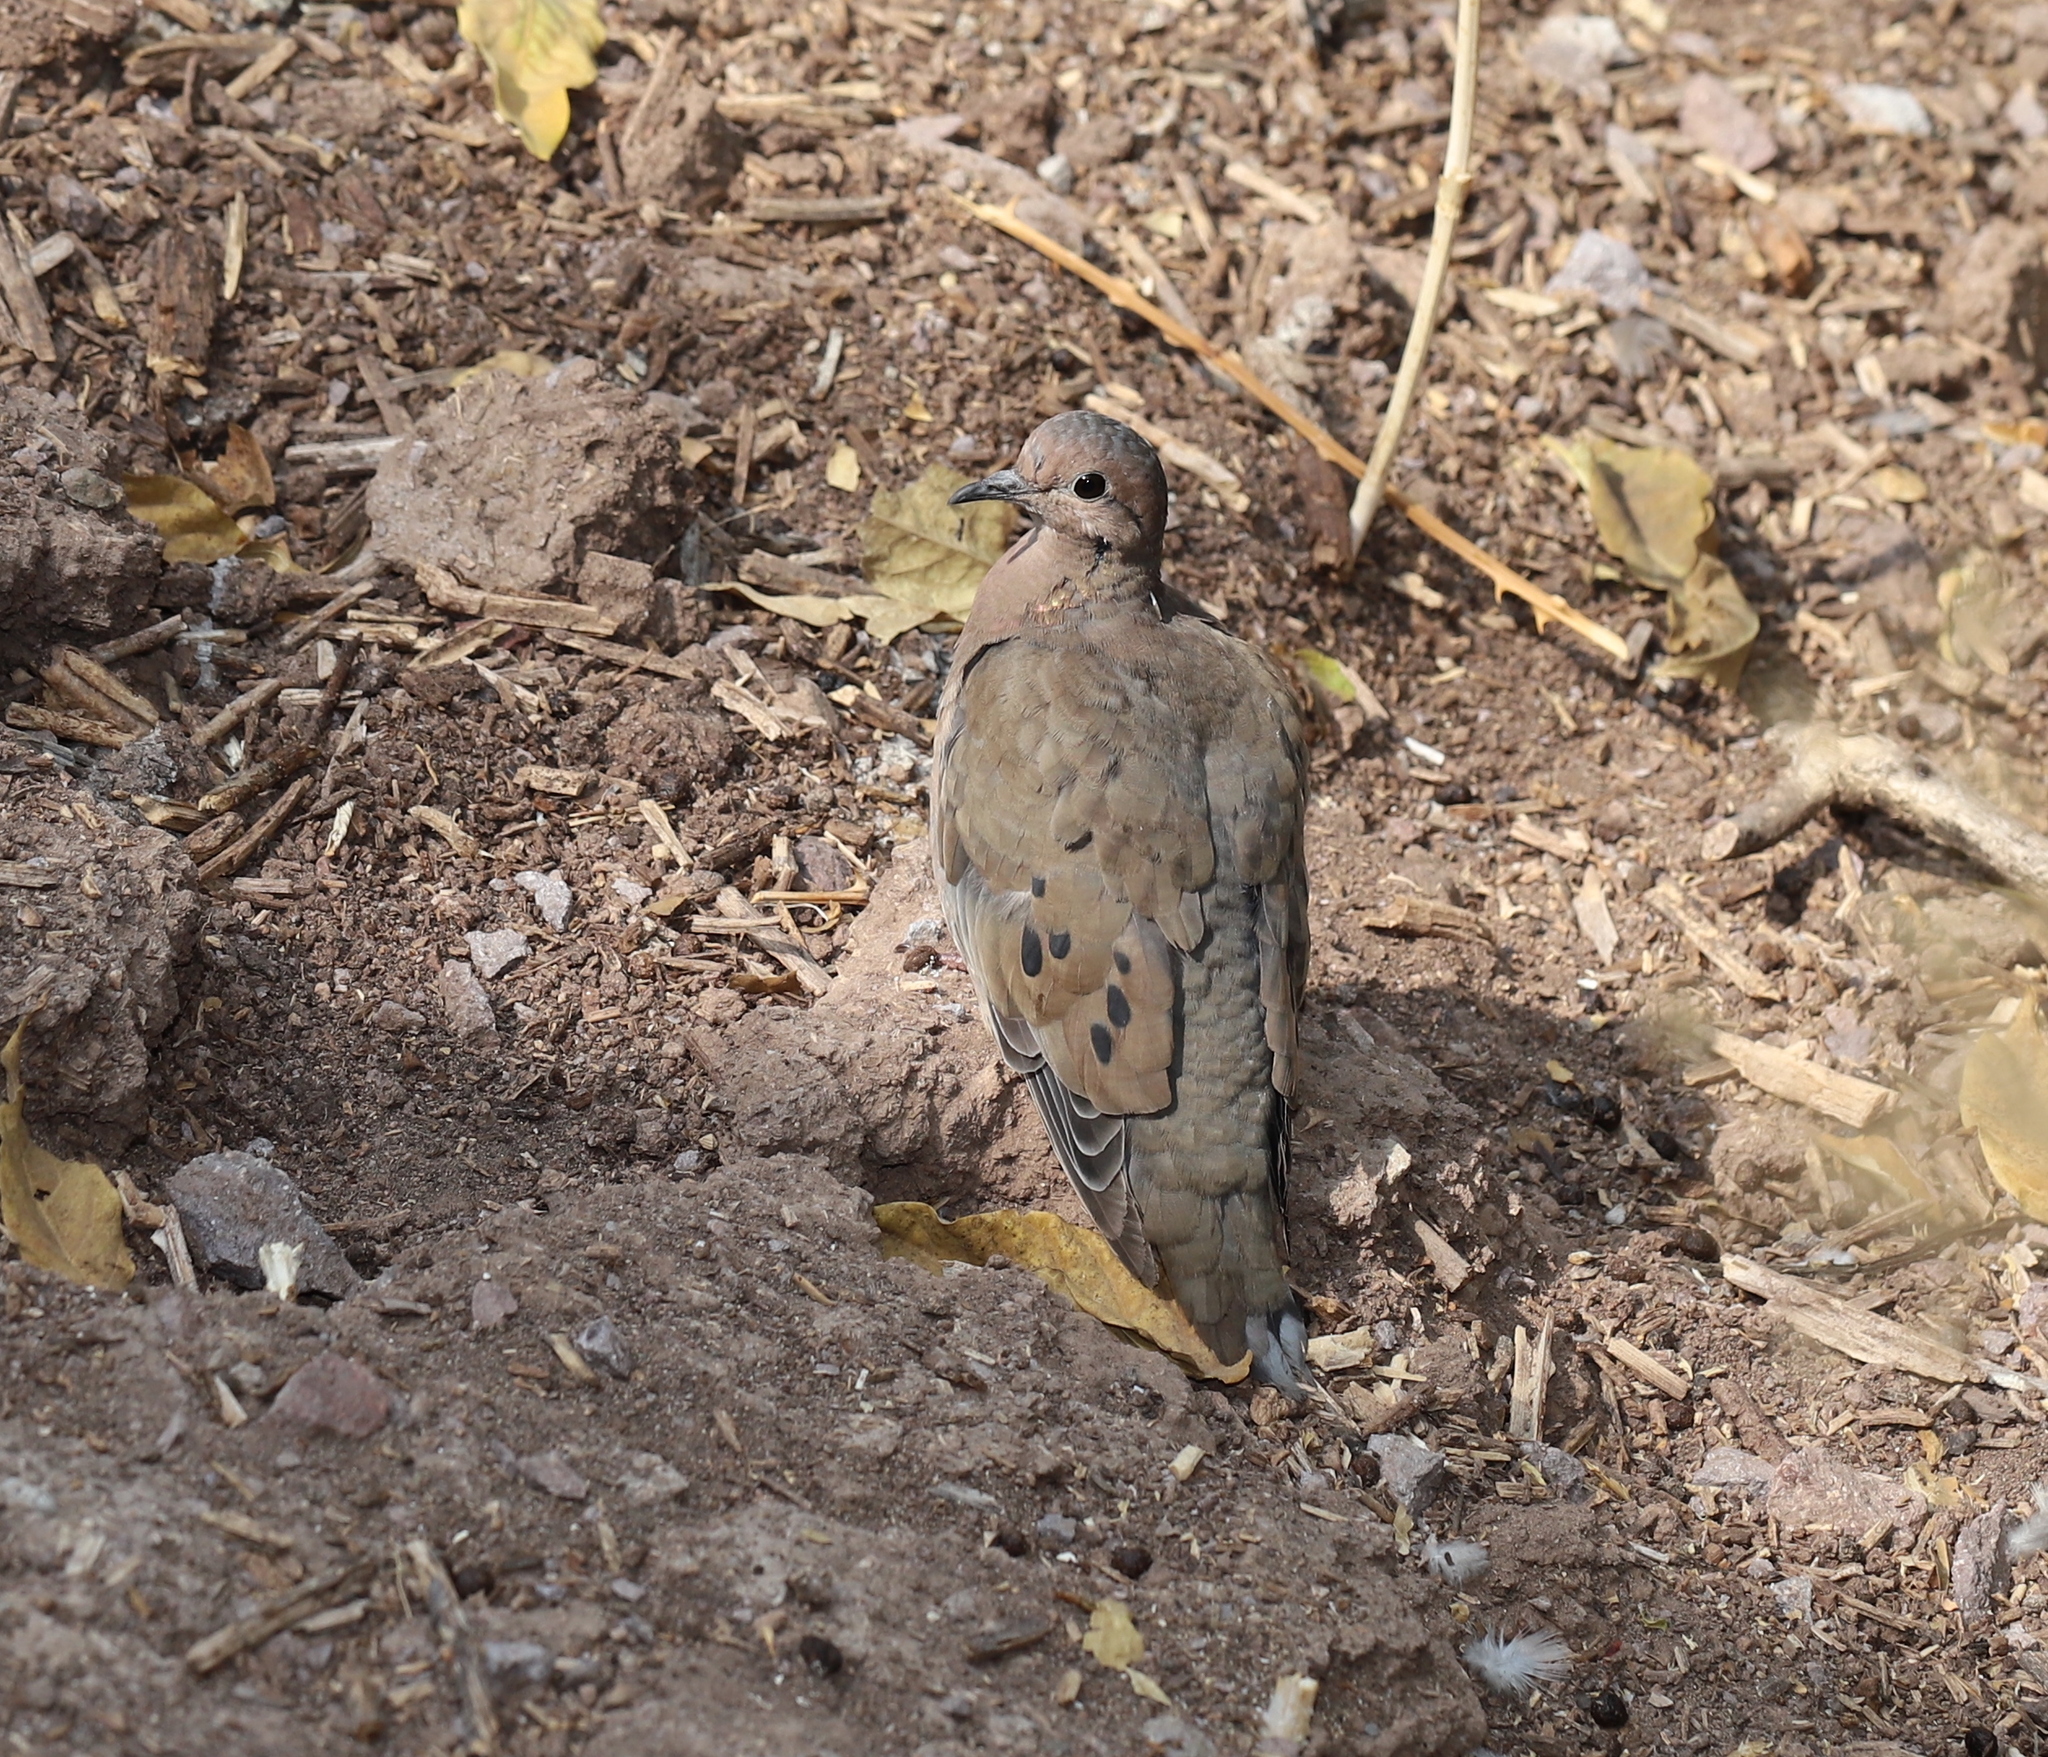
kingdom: Animalia
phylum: Chordata
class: Aves
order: Columbiformes
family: Columbidae
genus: Zenaida
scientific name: Zenaida auriculata
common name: Eared dove
